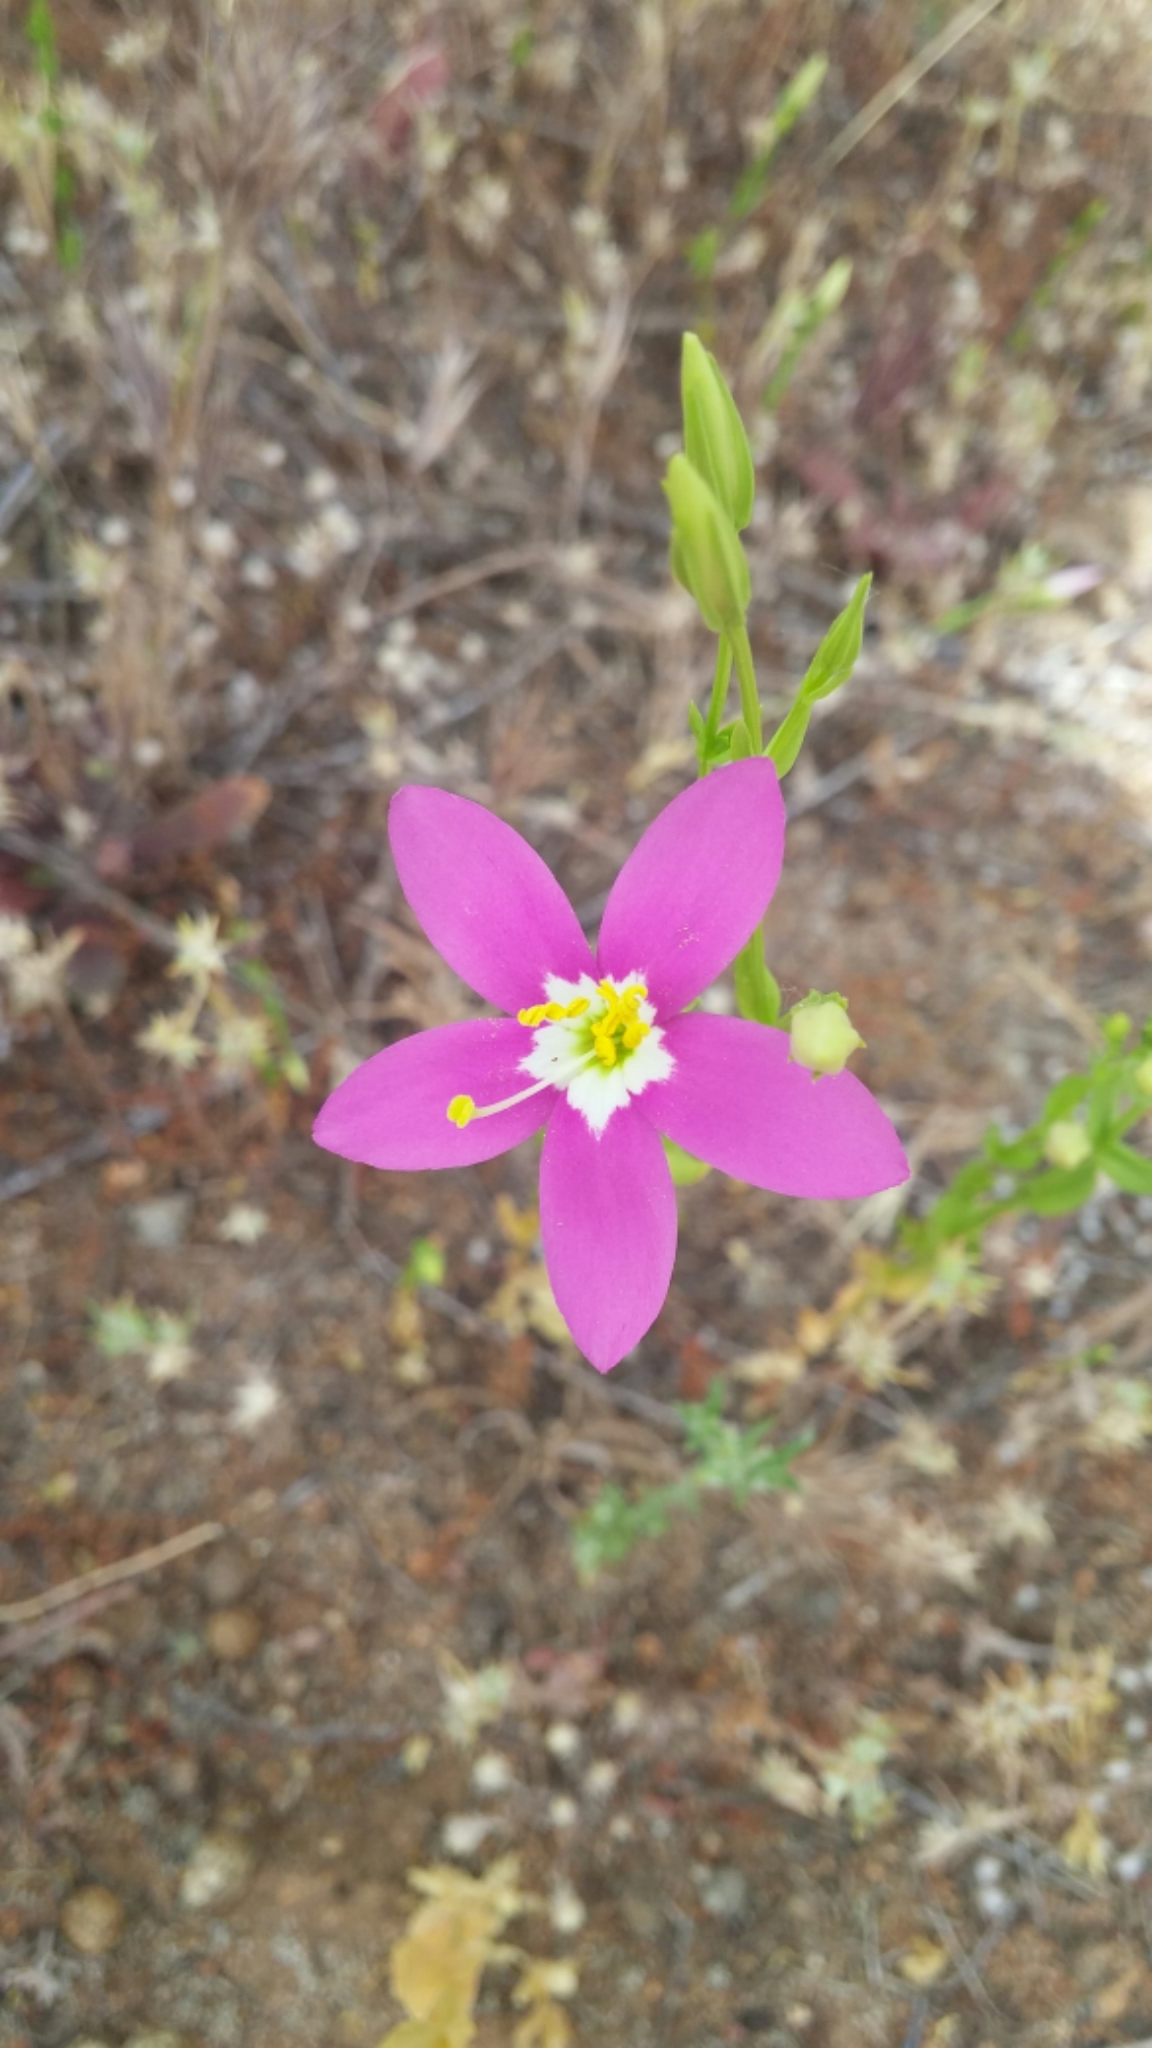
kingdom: Plantae
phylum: Tracheophyta
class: Magnoliopsida
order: Gentianales
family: Gentianaceae
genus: Zeltnera
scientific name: Zeltnera venusta
